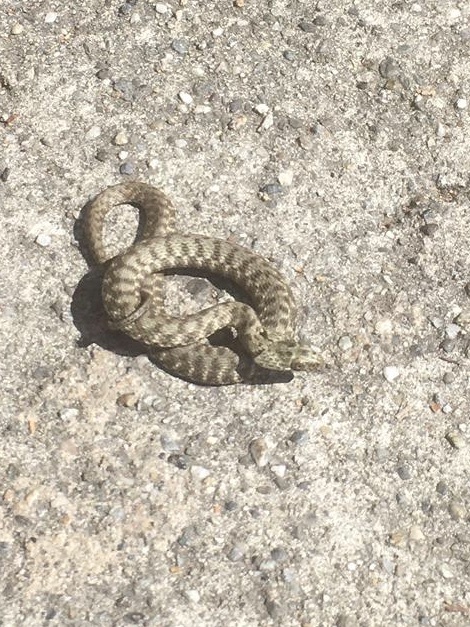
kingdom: Animalia
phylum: Chordata
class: Squamata
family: Colubridae
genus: Natrix
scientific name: Natrix tessellata
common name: Dice snake
